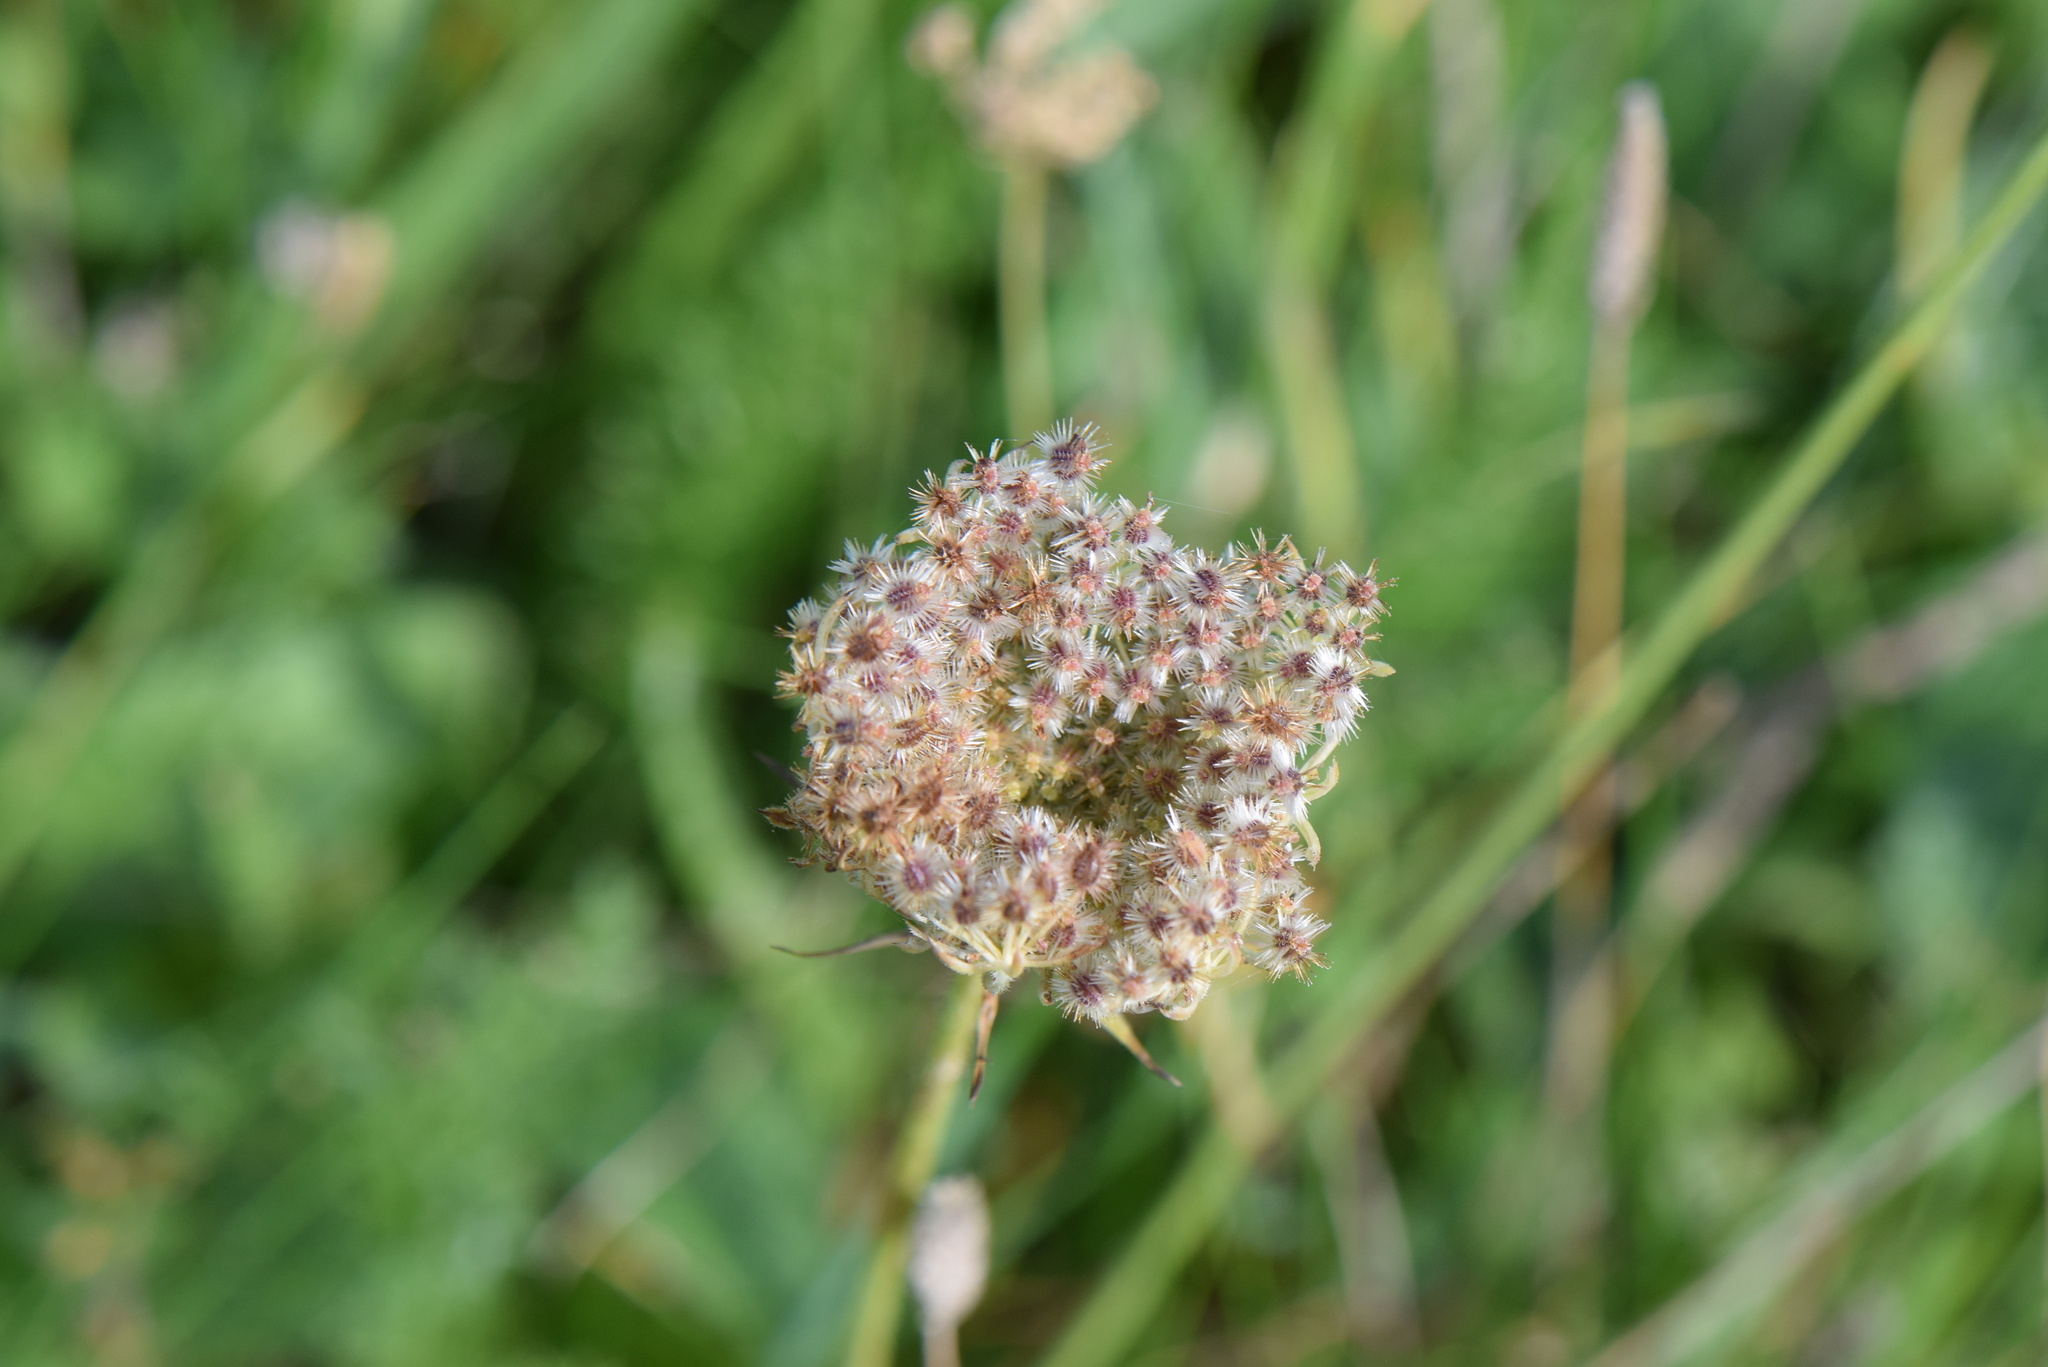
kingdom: Plantae
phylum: Tracheophyta
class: Magnoliopsida
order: Apiales
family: Apiaceae
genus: Daucus
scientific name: Daucus carota
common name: Wild carrot
